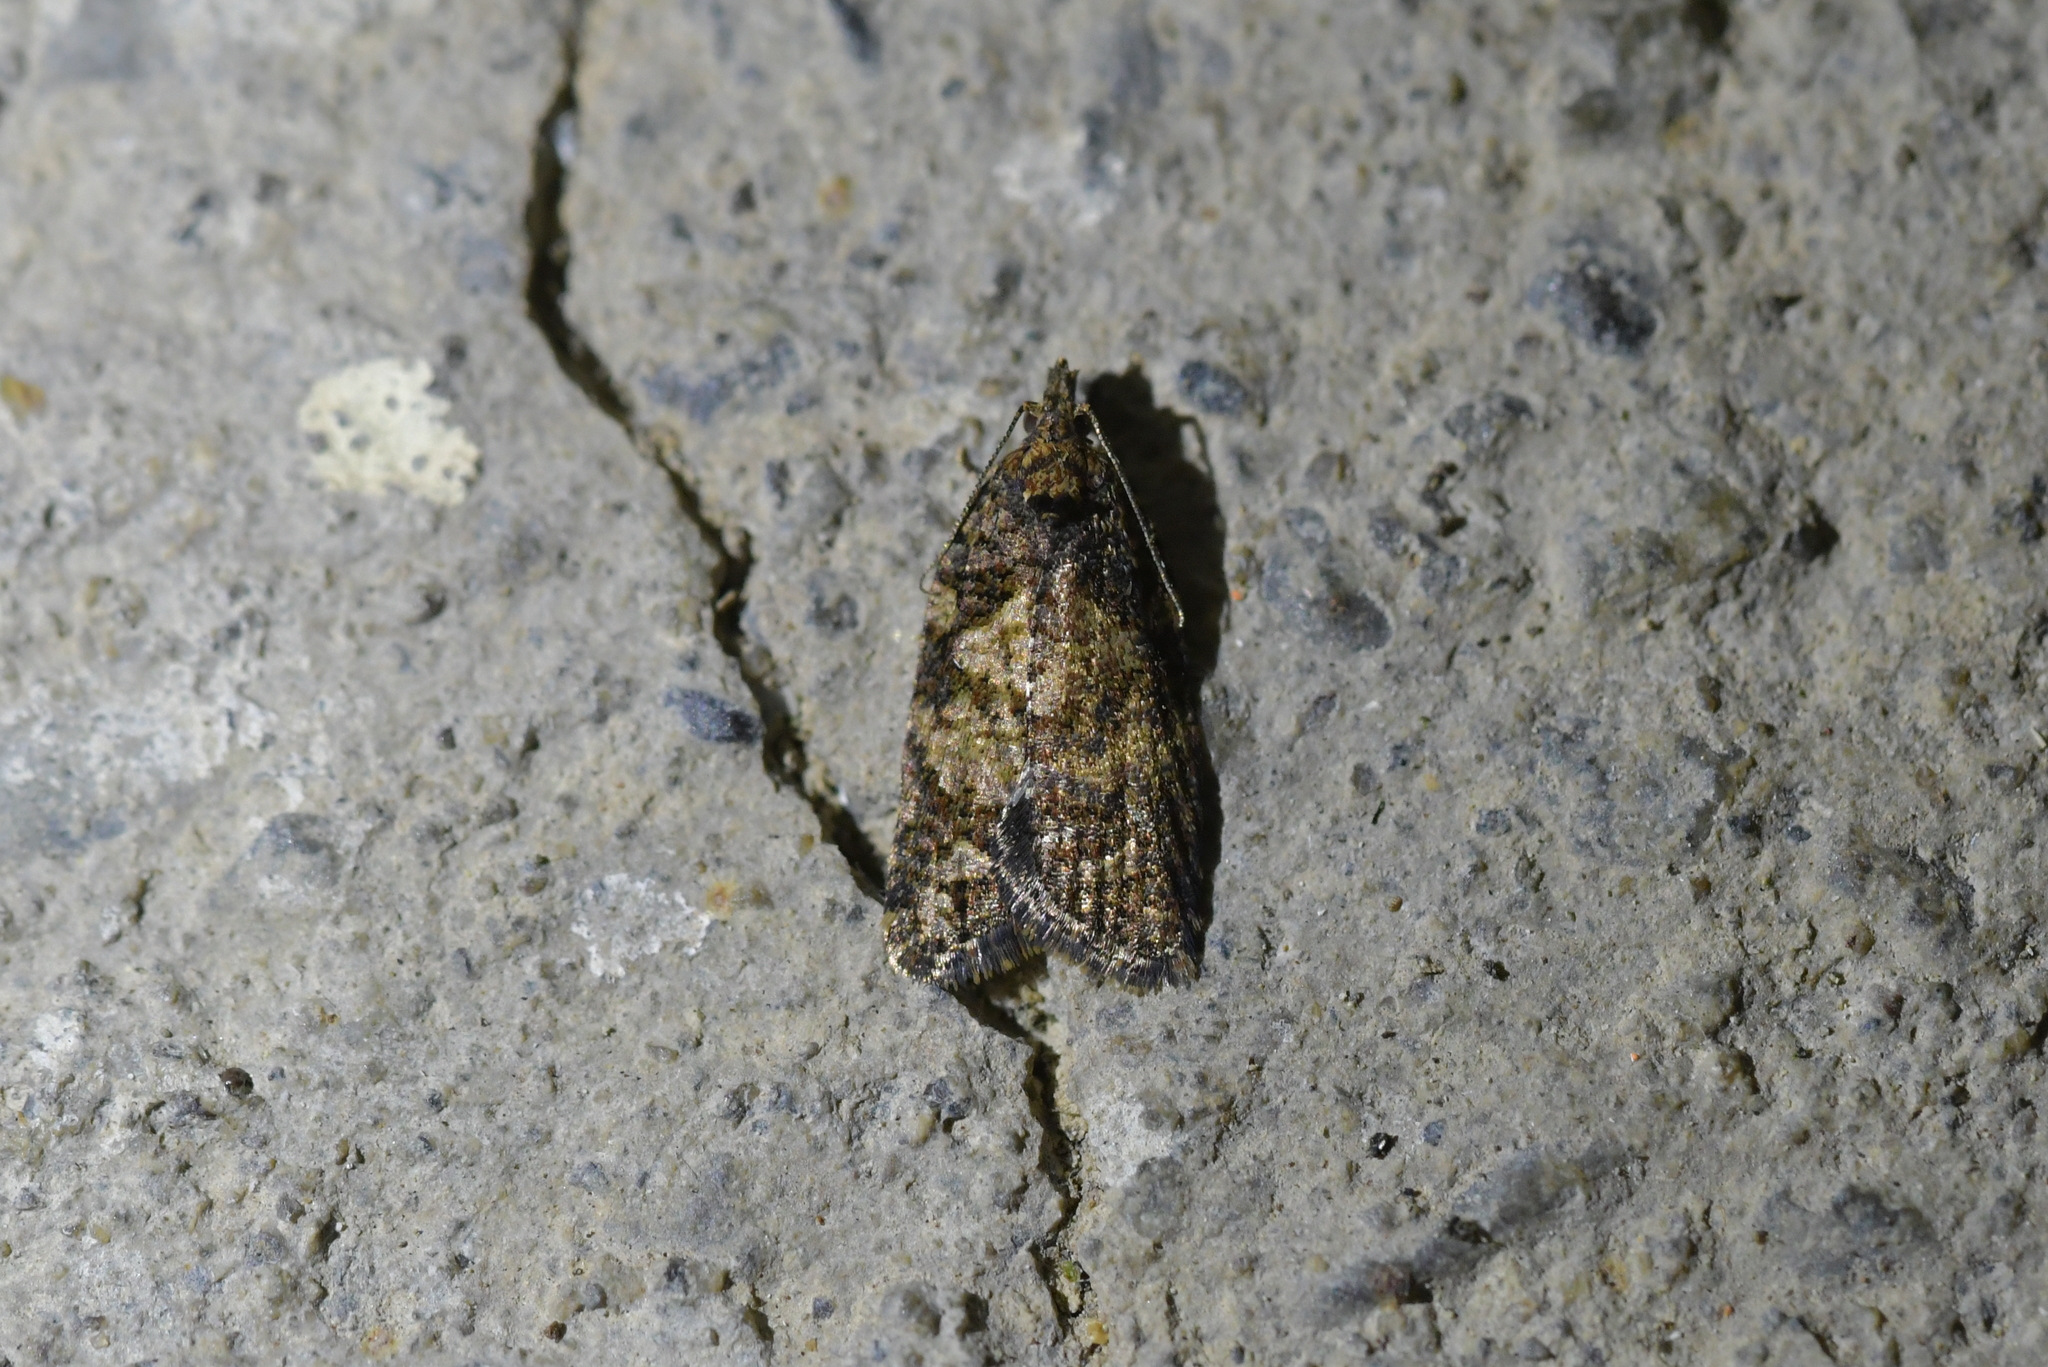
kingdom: Animalia
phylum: Arthropoda
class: Insecta
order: Lepidoptera
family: Tortricidae
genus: Capua
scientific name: Capua intractana
